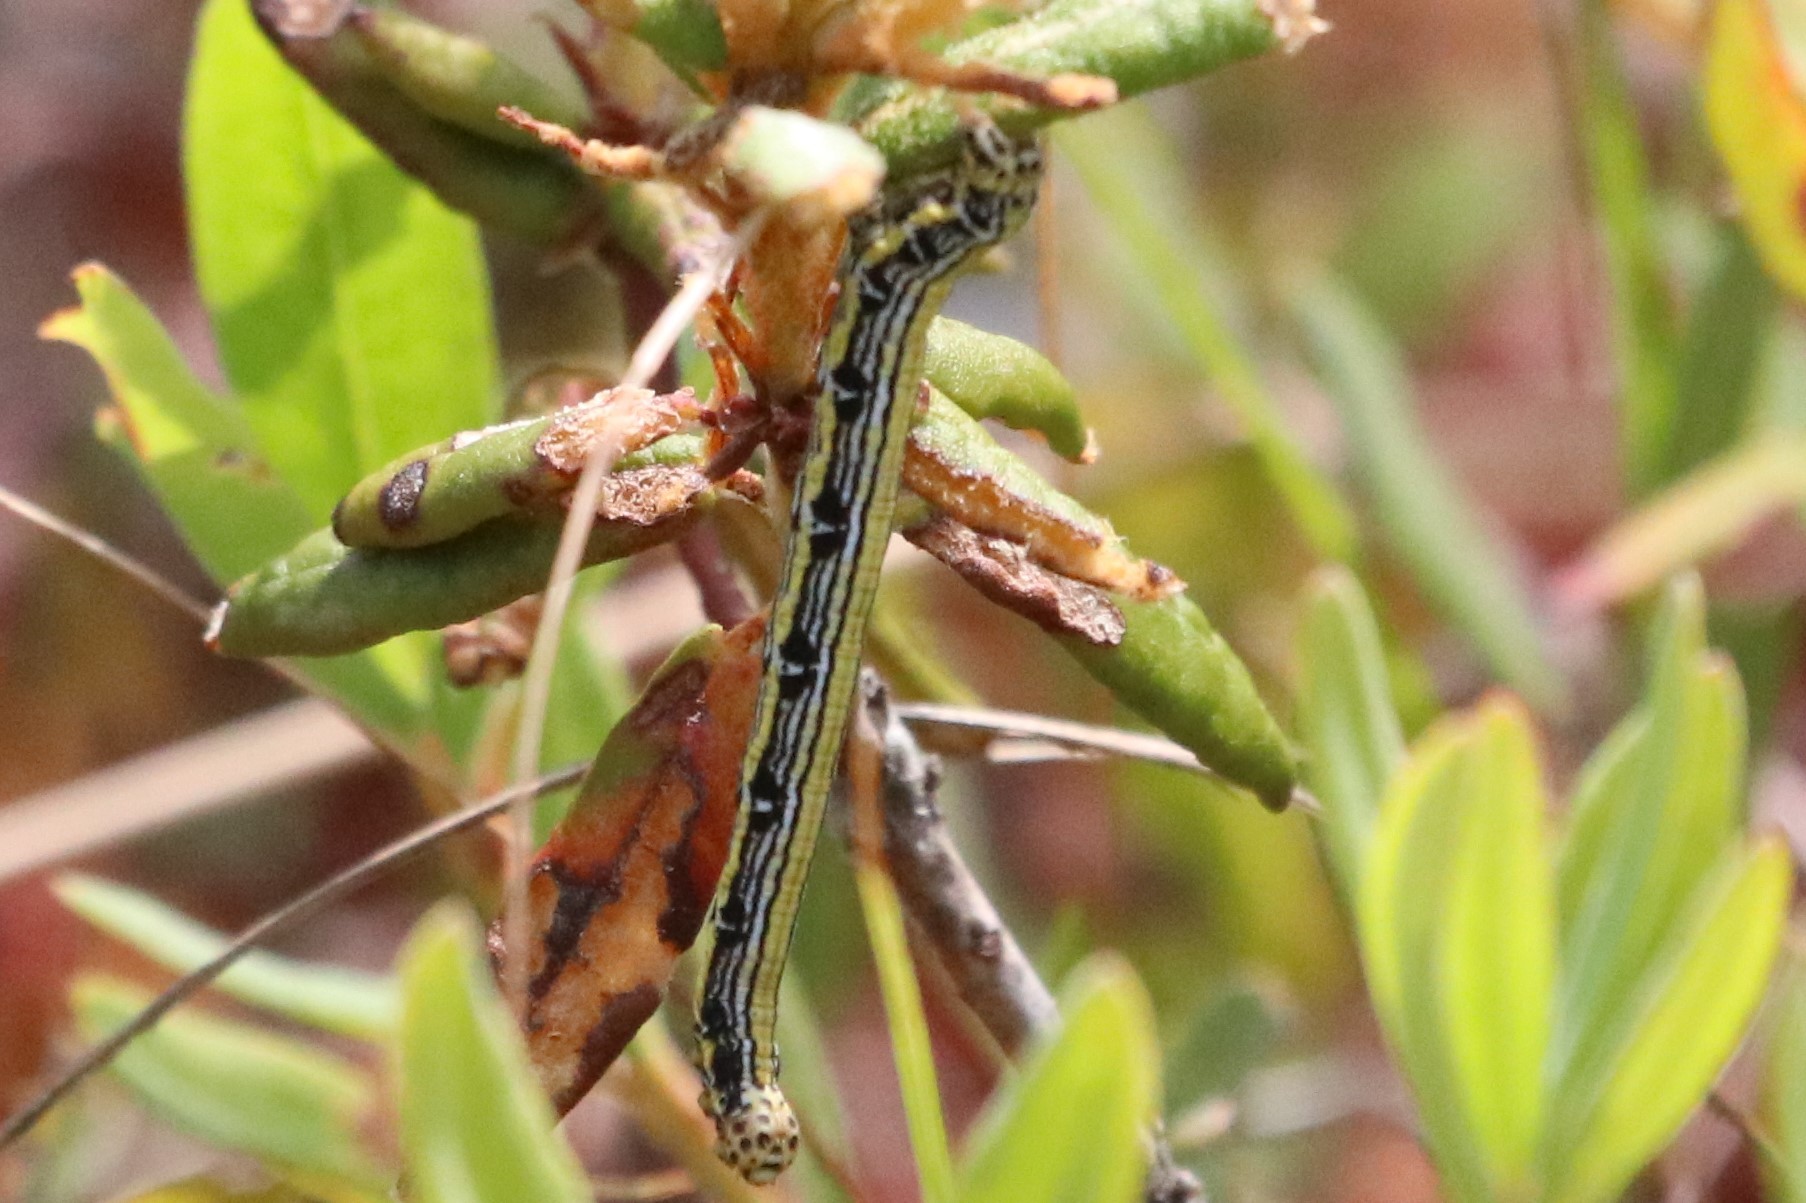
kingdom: Animalia
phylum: Arthropoda
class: Insecta
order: Lepidoptera
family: Geometridae
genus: Cingilia
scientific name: Cingilia catenaria
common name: Chain-dotted geometer
